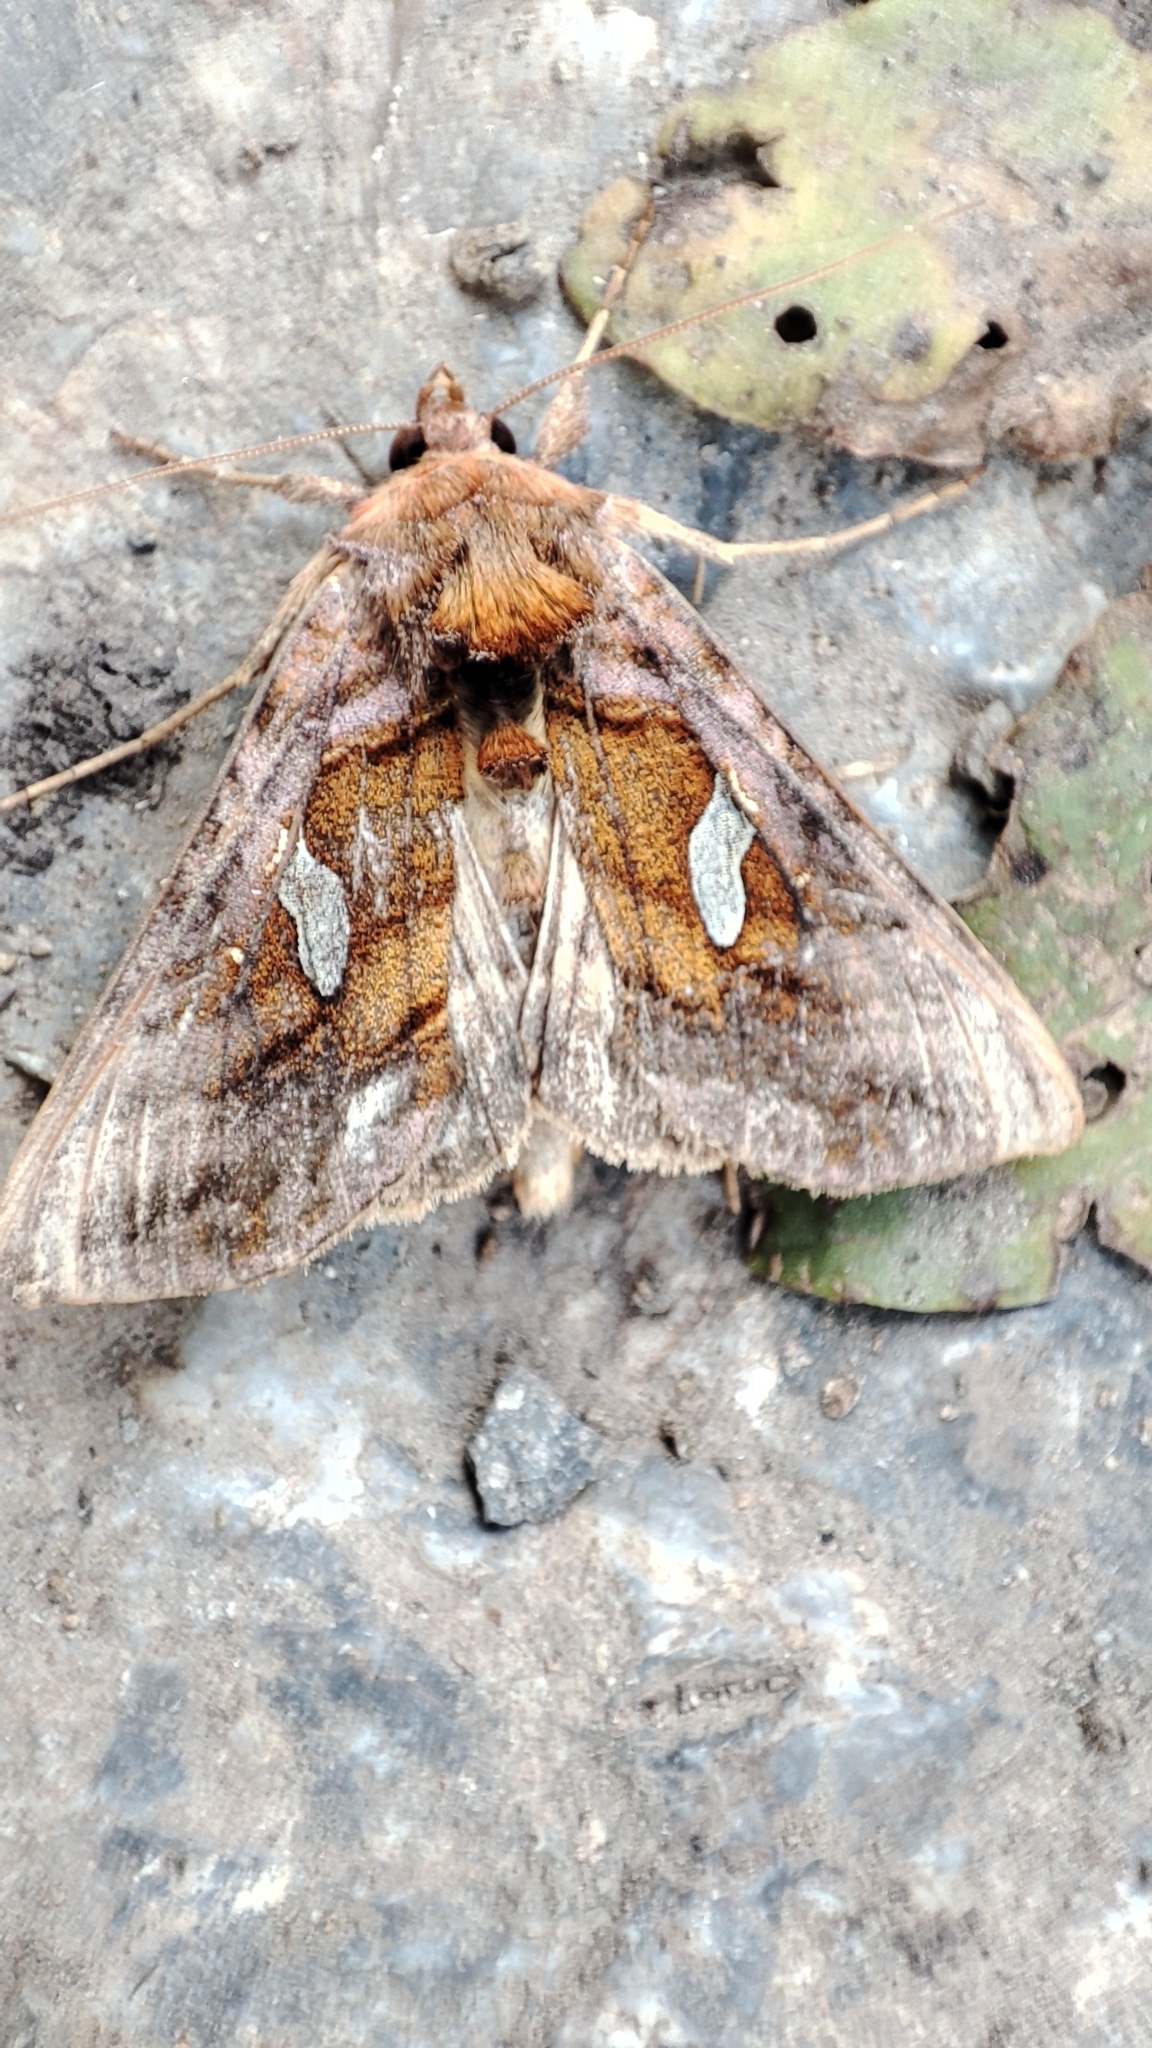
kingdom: Animalia
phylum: Arthropoda
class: Insecta
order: Lepidoptera
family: Noctuidae
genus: Autographa
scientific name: Autographa excelsa
